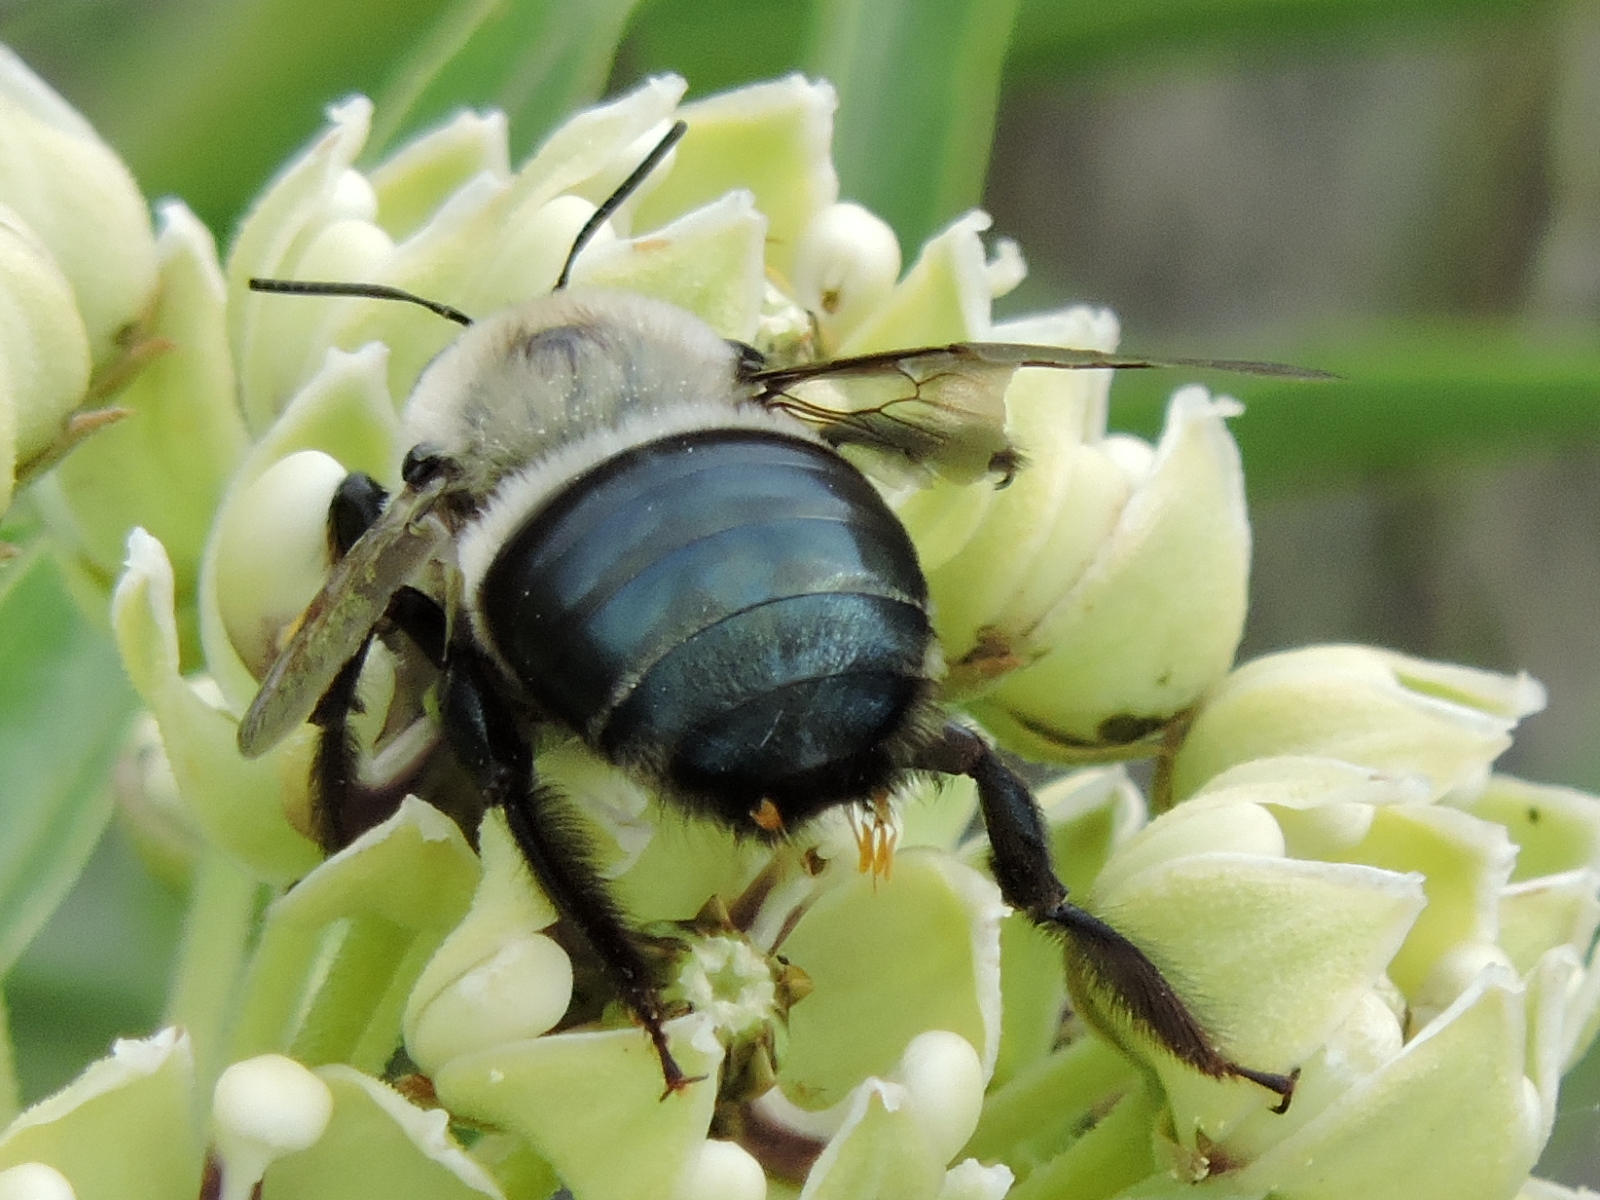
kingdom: Animalia
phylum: Arthropoda
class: Insecta
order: Hymenoptera
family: Apidae
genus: Xylocopa
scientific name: Xylocopa virginica
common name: Carpenter bee
